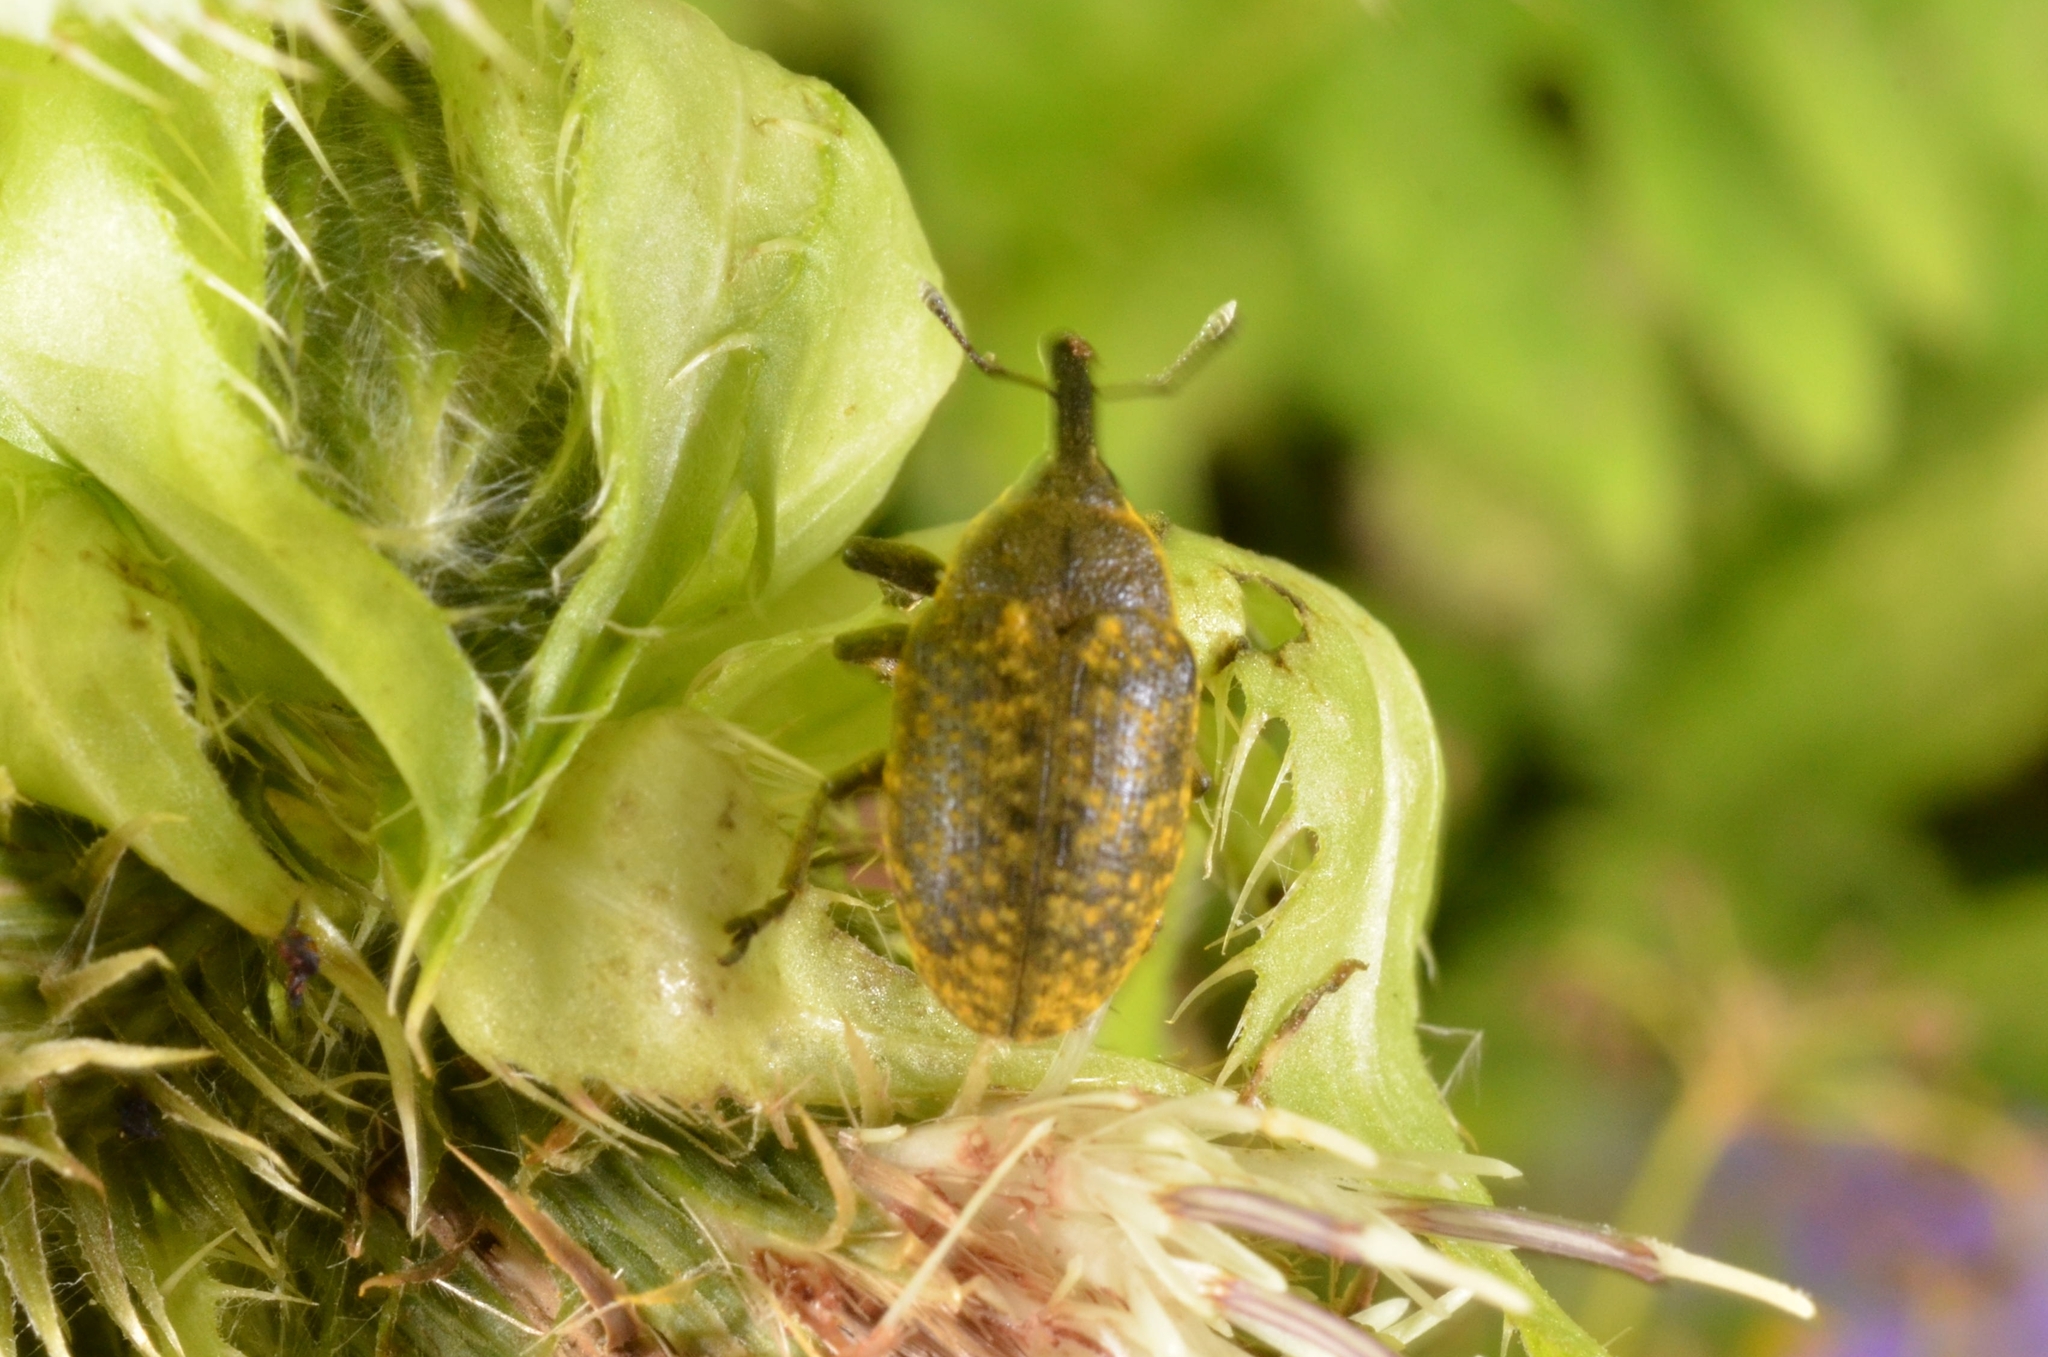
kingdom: Animalia
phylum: Arthropoda
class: Insecta
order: Coleoptera
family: Curculionidae
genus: Larinus
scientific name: Larinus sturnus
